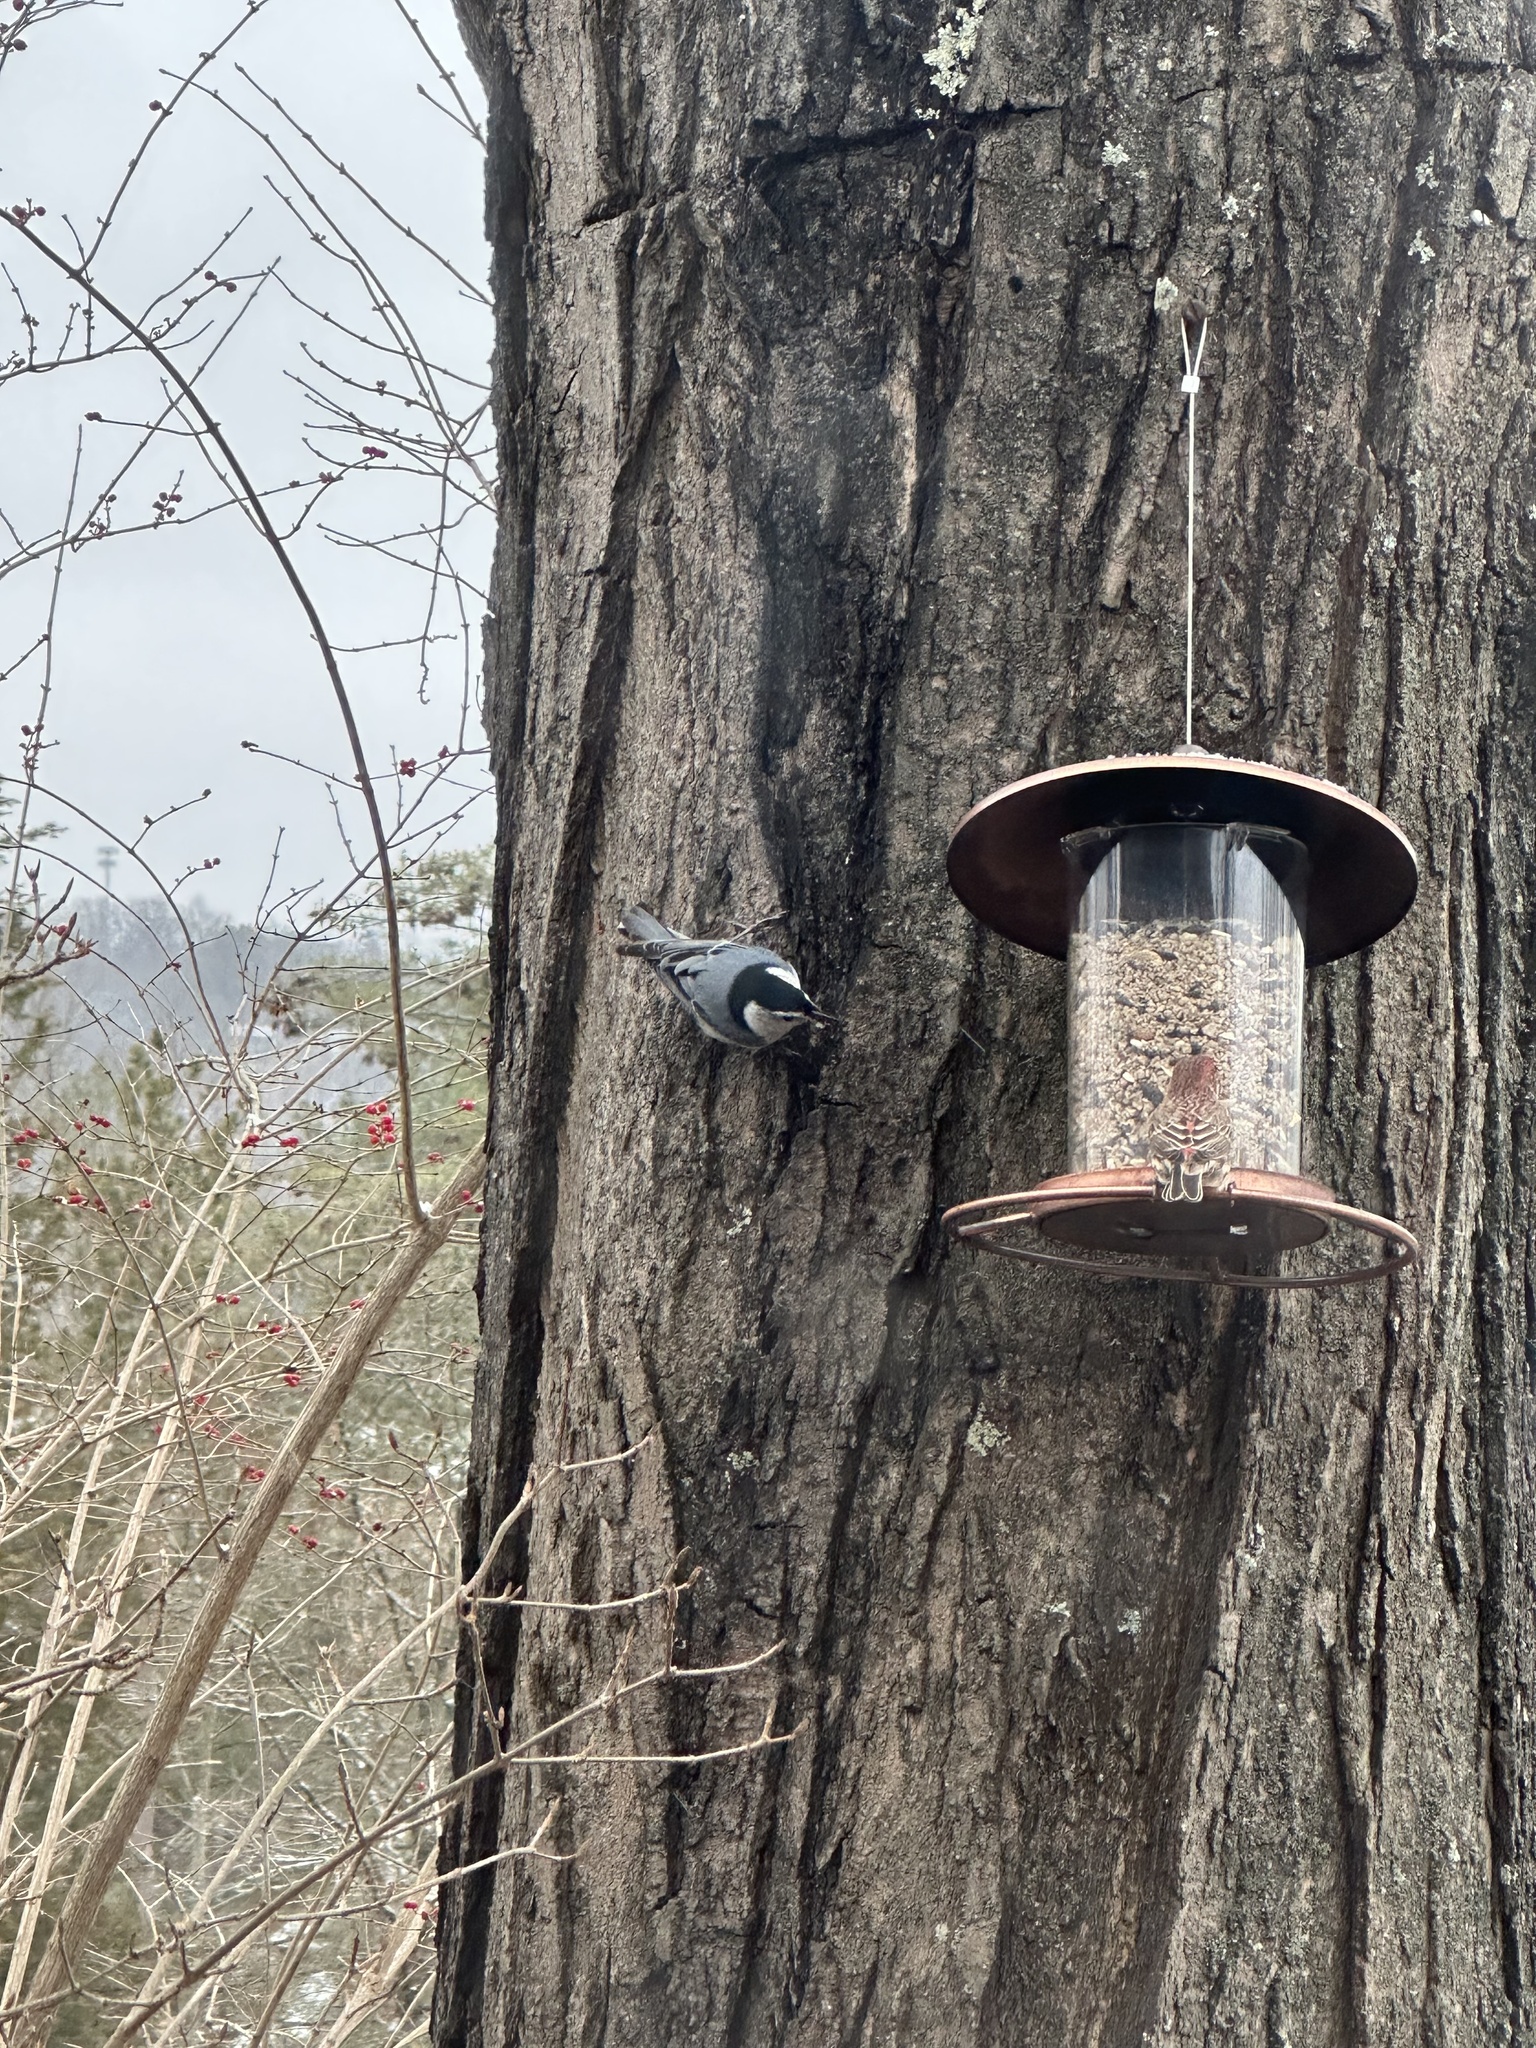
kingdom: Animalia
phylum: Chordata
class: Aves
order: Passeriformes
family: Sittidae
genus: Sitta
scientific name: Sitta carolinensis
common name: White-breasted nuthatch
